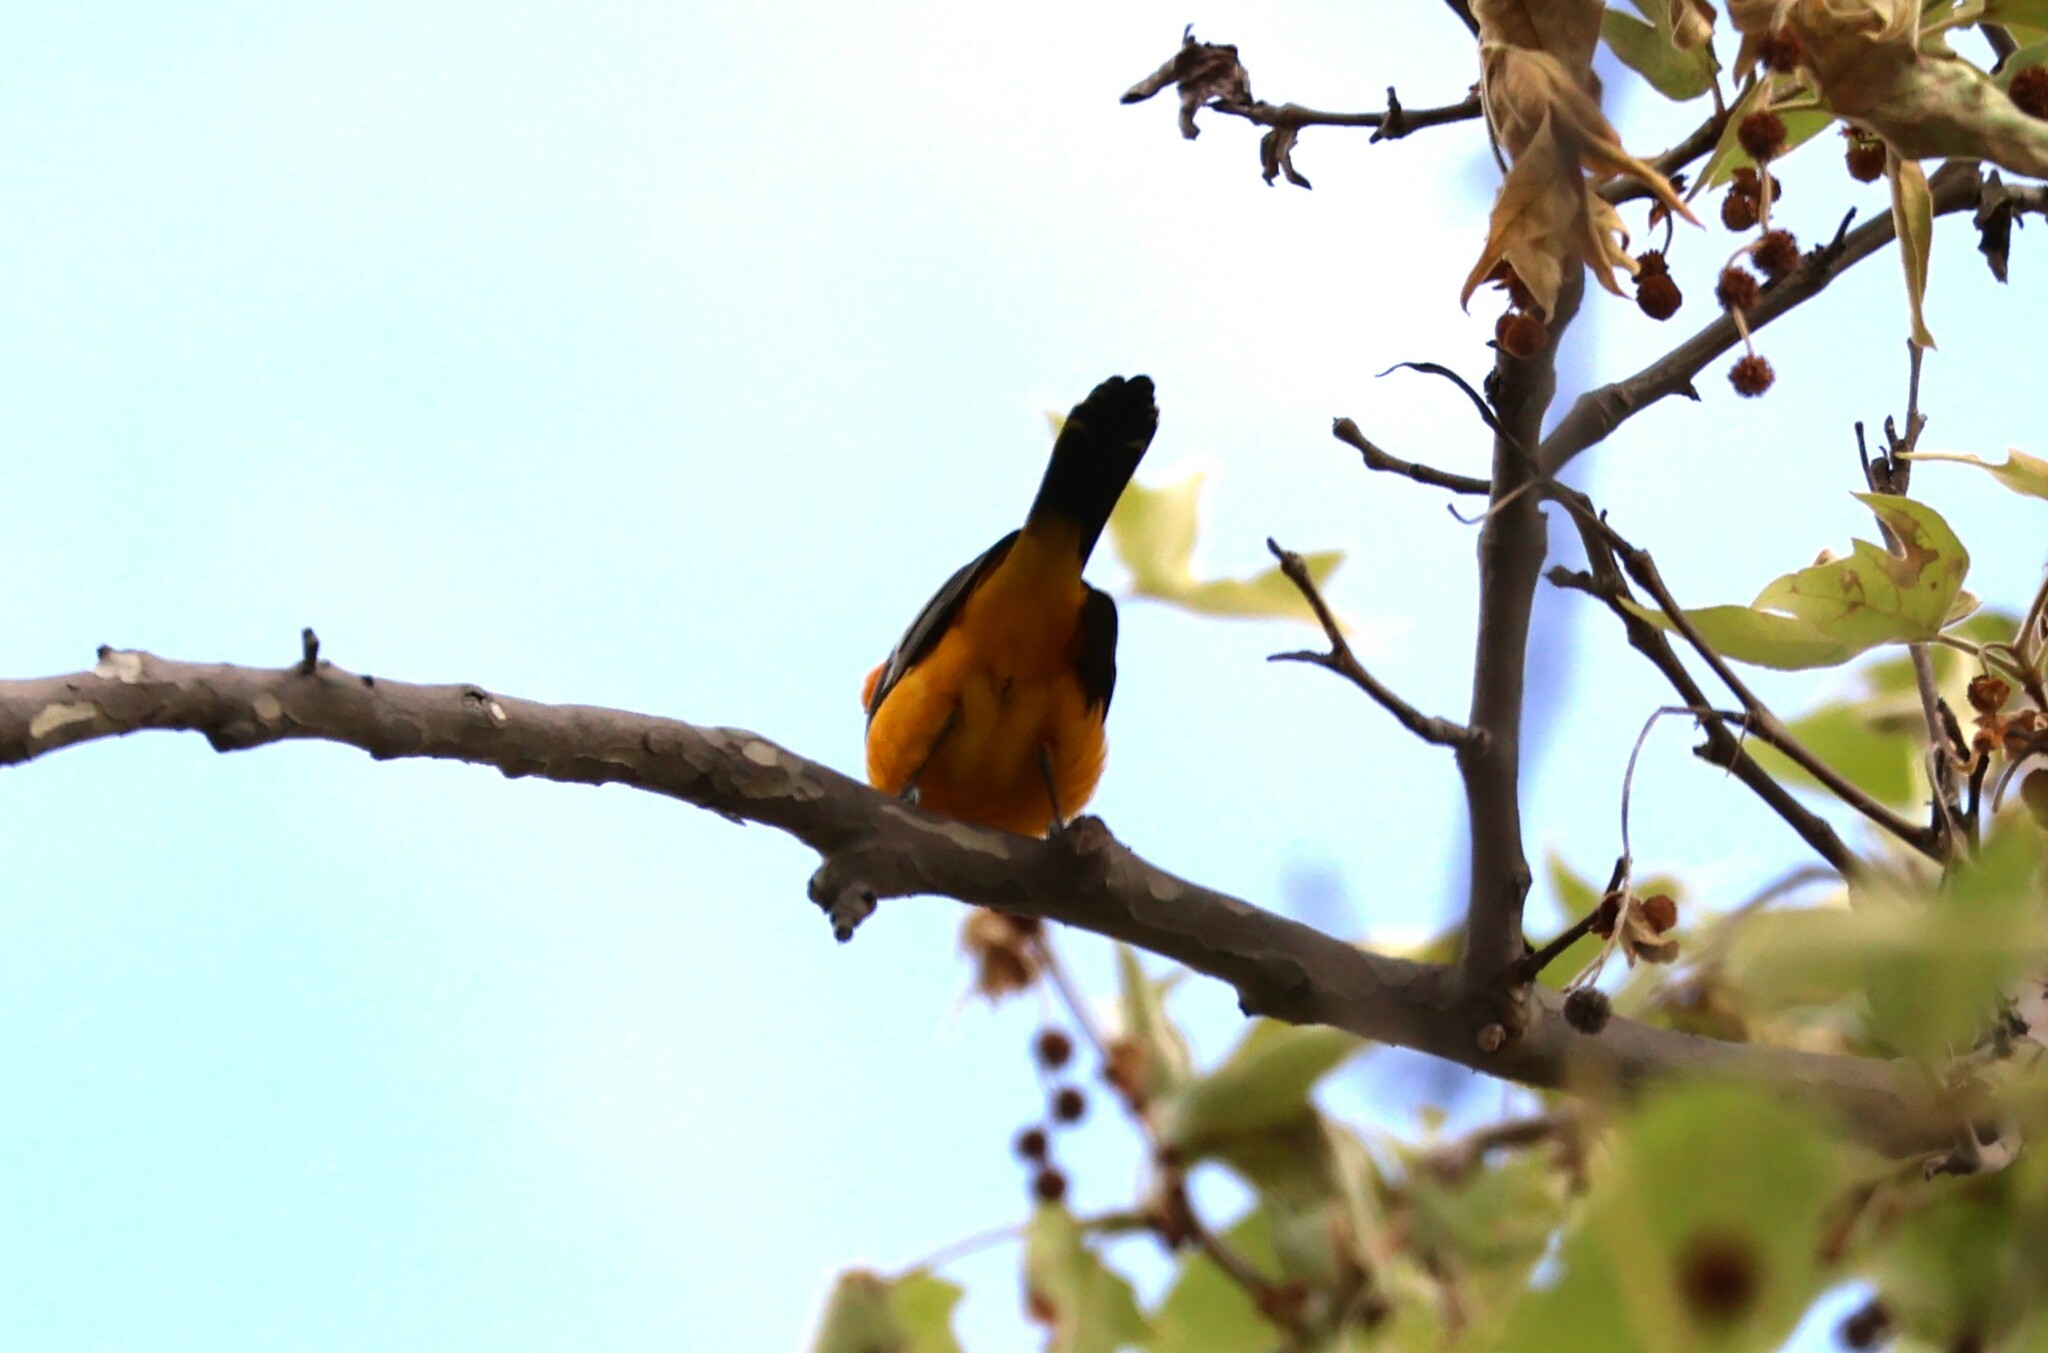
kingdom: Animalia
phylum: Chordata
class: Aves
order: Passeriformes
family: Icteridae
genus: Icterus
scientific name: Icterus cucullatus
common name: Hooded oriole
